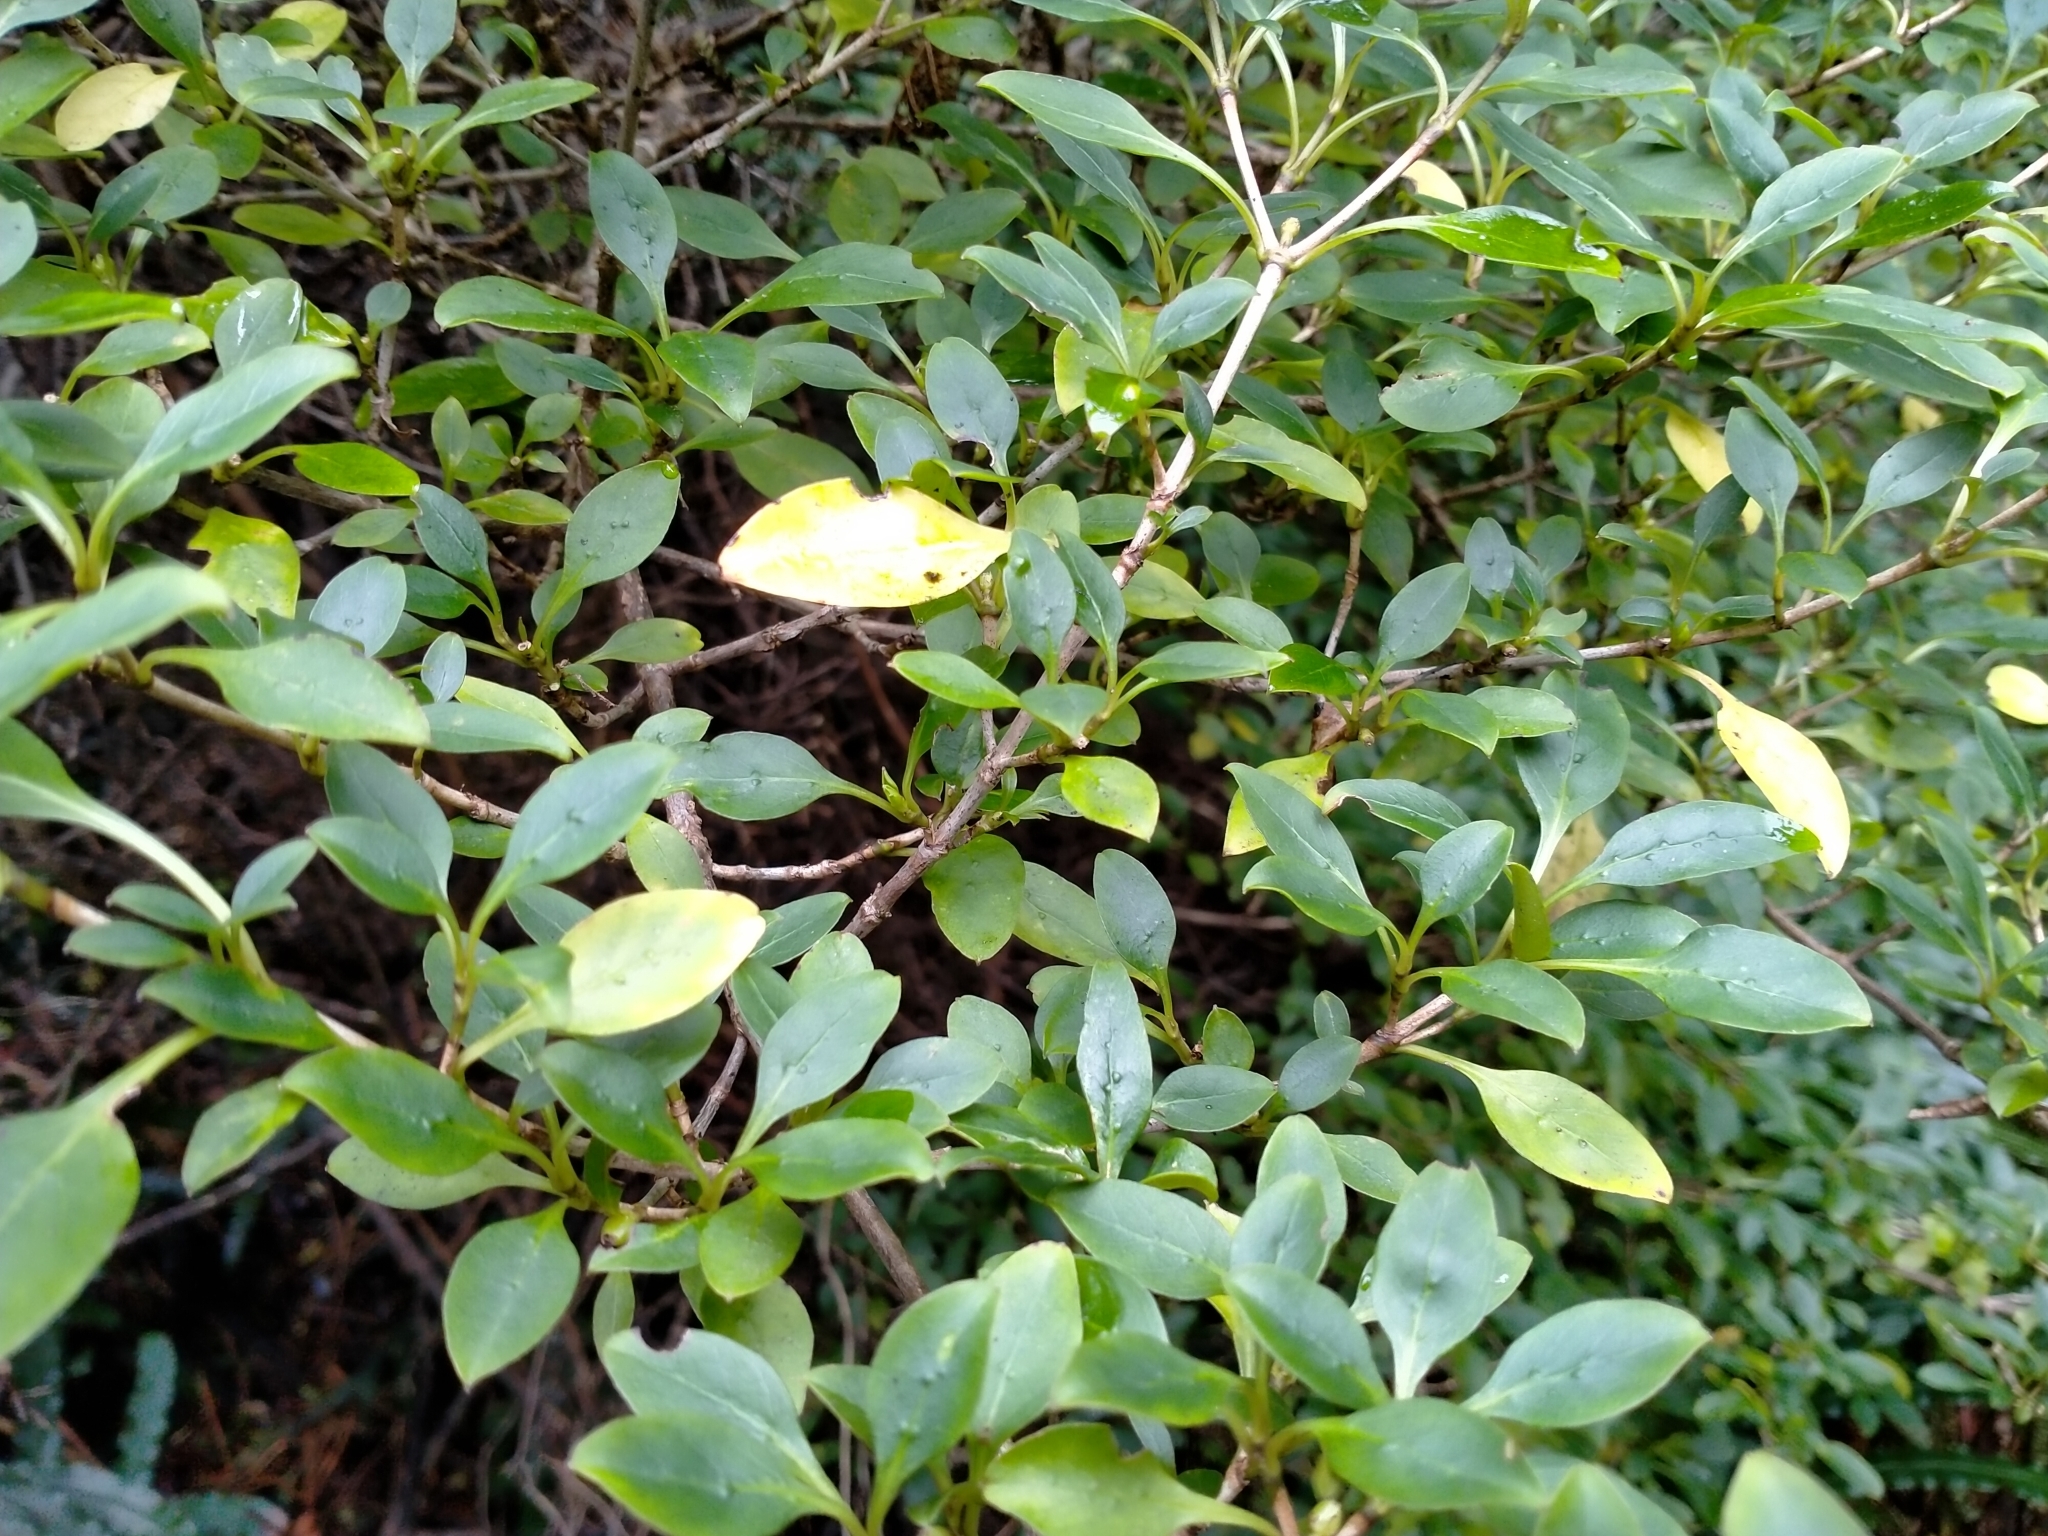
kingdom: Plantae
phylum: Tracheophyta
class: Magnoliopsida
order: Gentianales
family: Rubiaceae
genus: Coprosma
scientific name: Coprosma foetidissima
